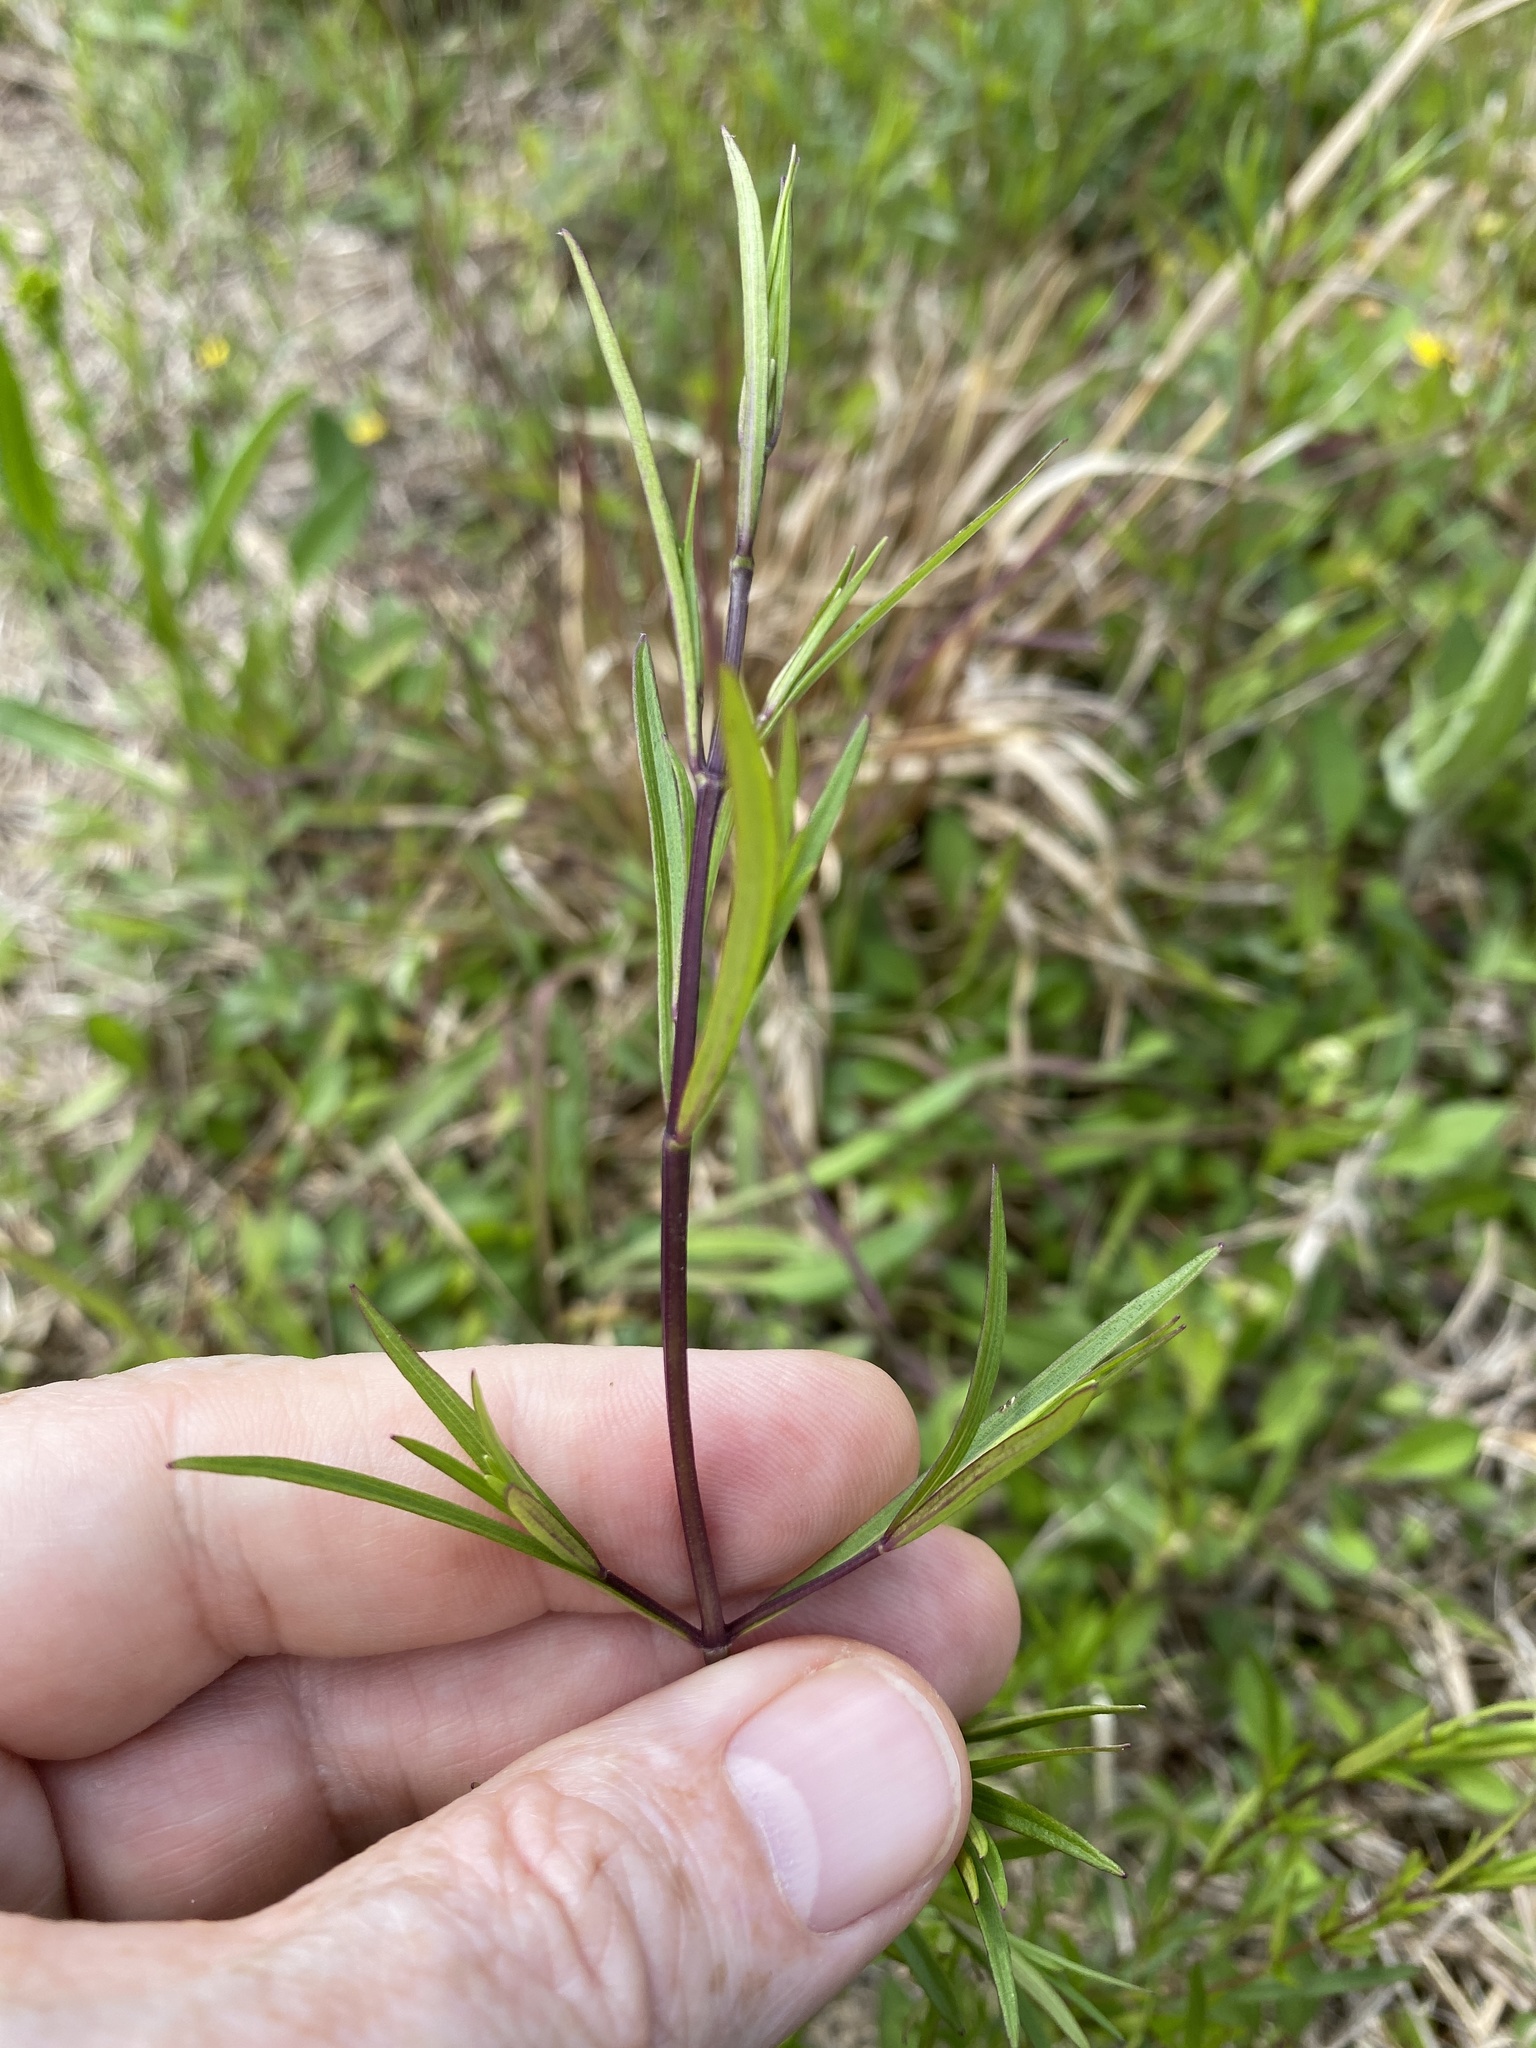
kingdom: Plantae
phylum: Tracheophyta
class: Magnoliopsida
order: Lamiales
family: Lamiaceae
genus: Pycnanthemum
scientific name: Pycnanthemum tenuifolium
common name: Narrow-leaf mountain-mint
